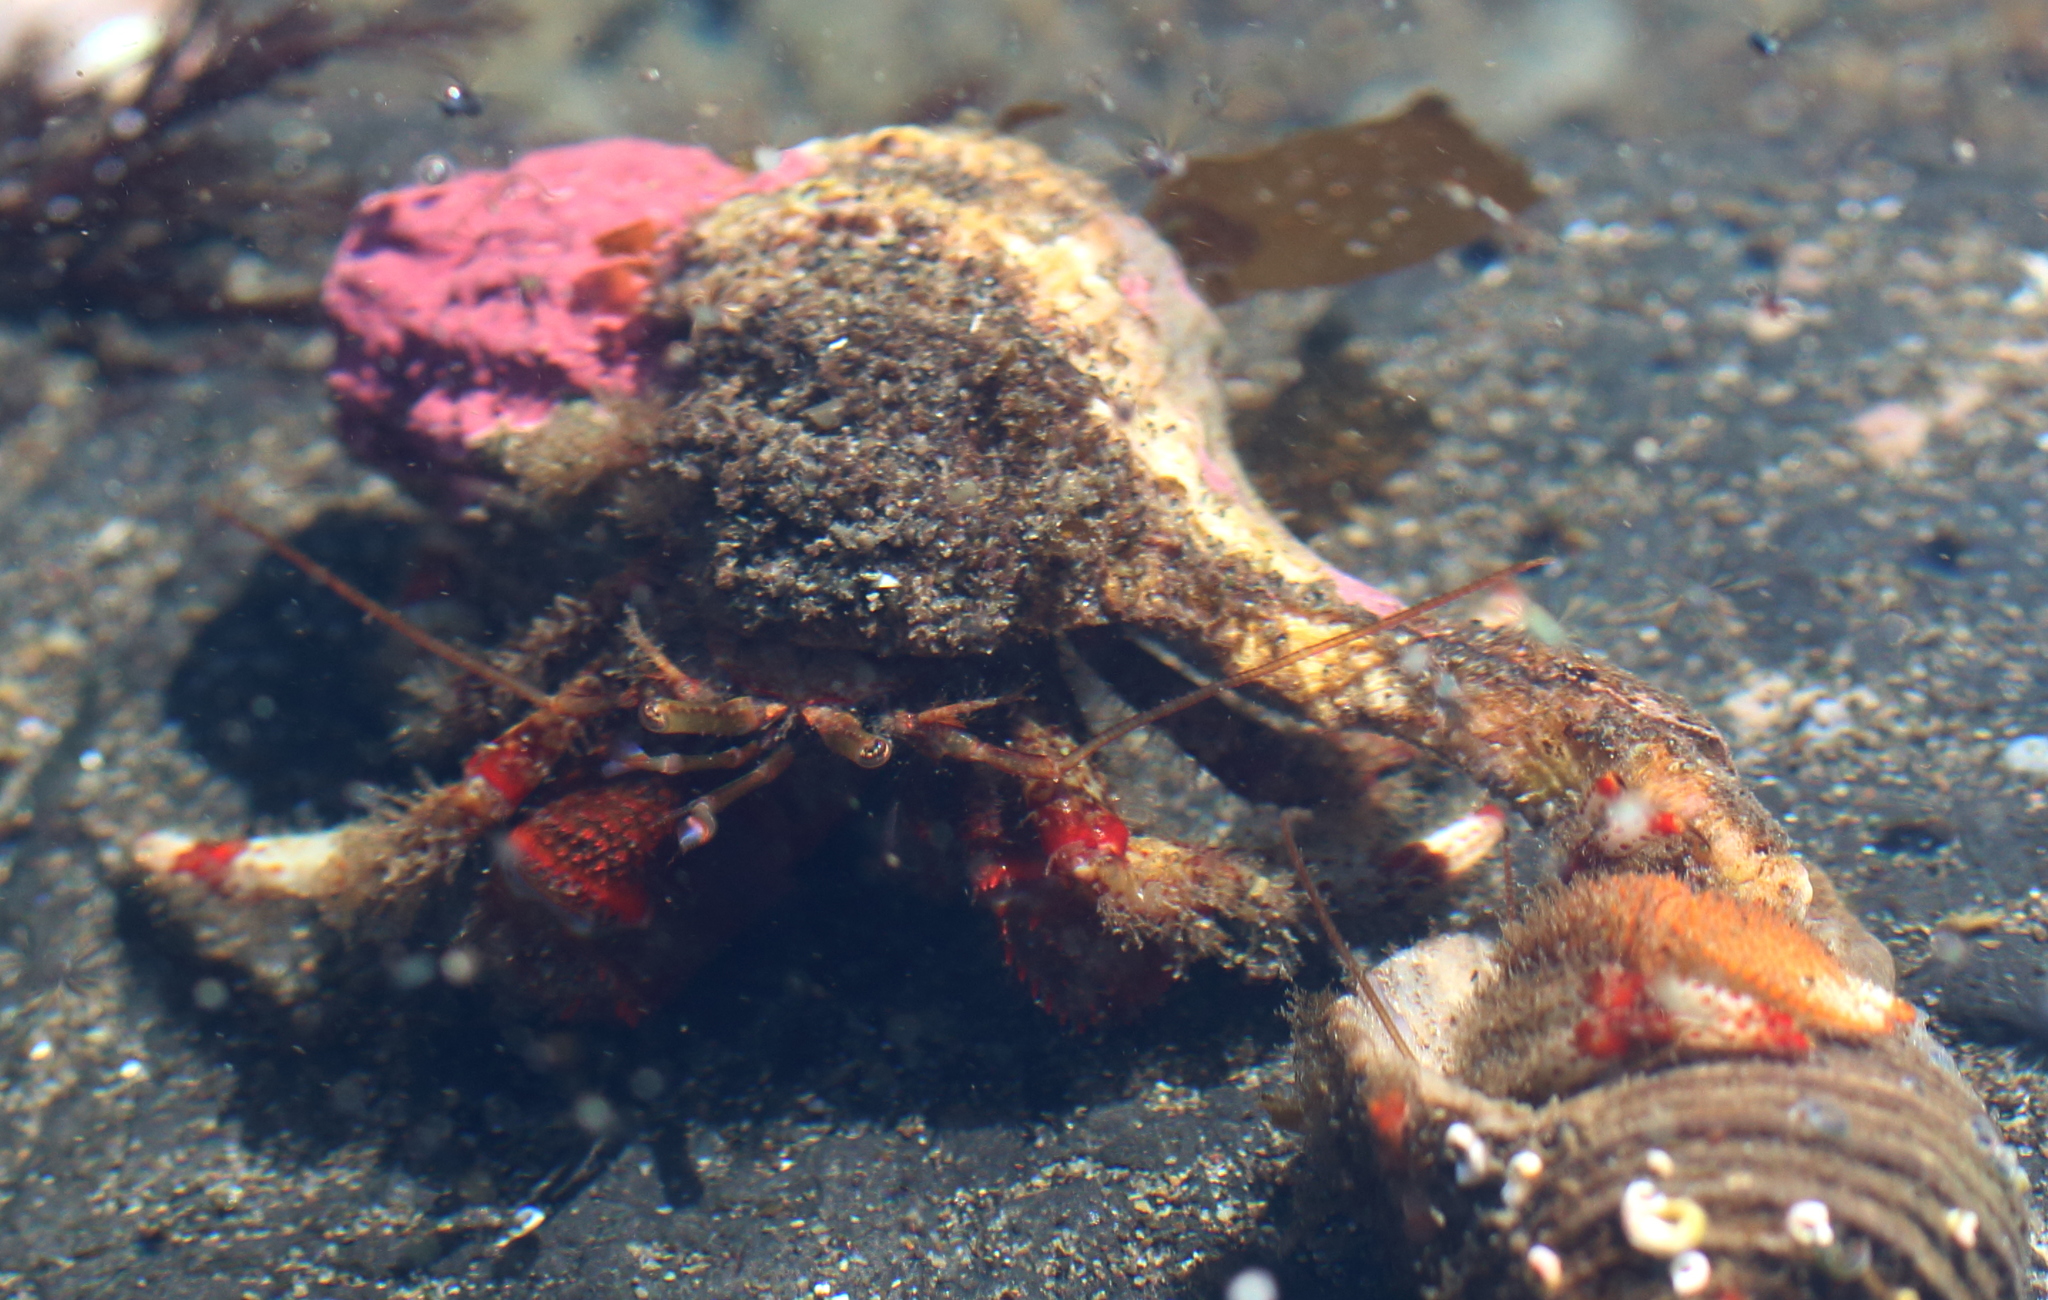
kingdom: Animalia
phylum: Arthropoda
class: Malacostraca
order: Decapoda
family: Paguridae
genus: Pagurus
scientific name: Pagurus beringanus
